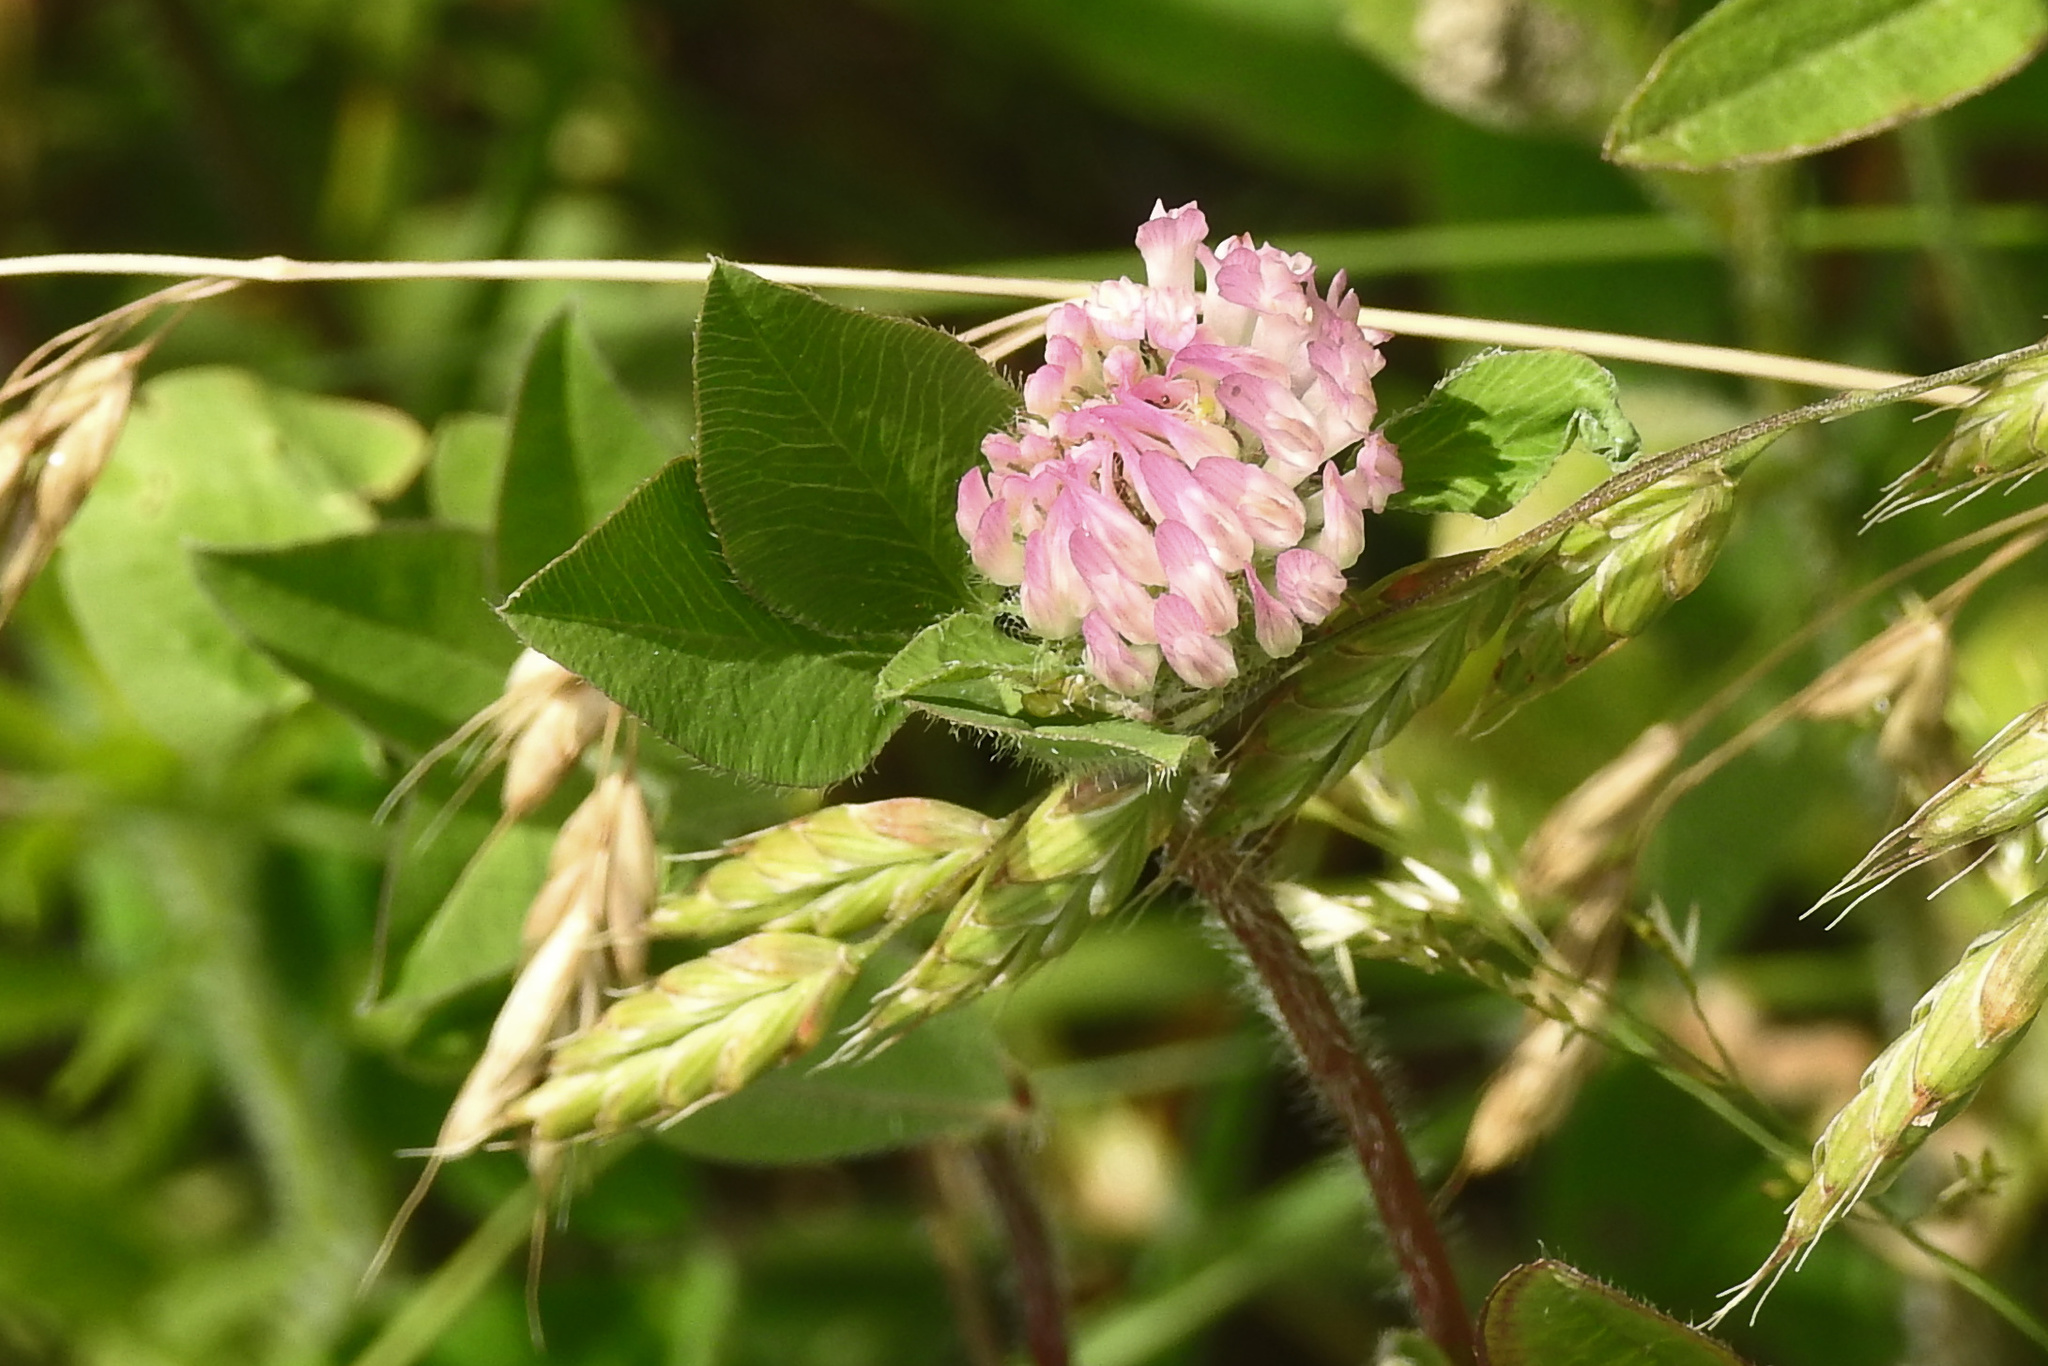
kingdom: Plantae
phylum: Tracheophyta
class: Magnoliopsida
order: Fabales
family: Fabaceae
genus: Trifolium
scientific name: Trifolium pratense
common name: Red clover
